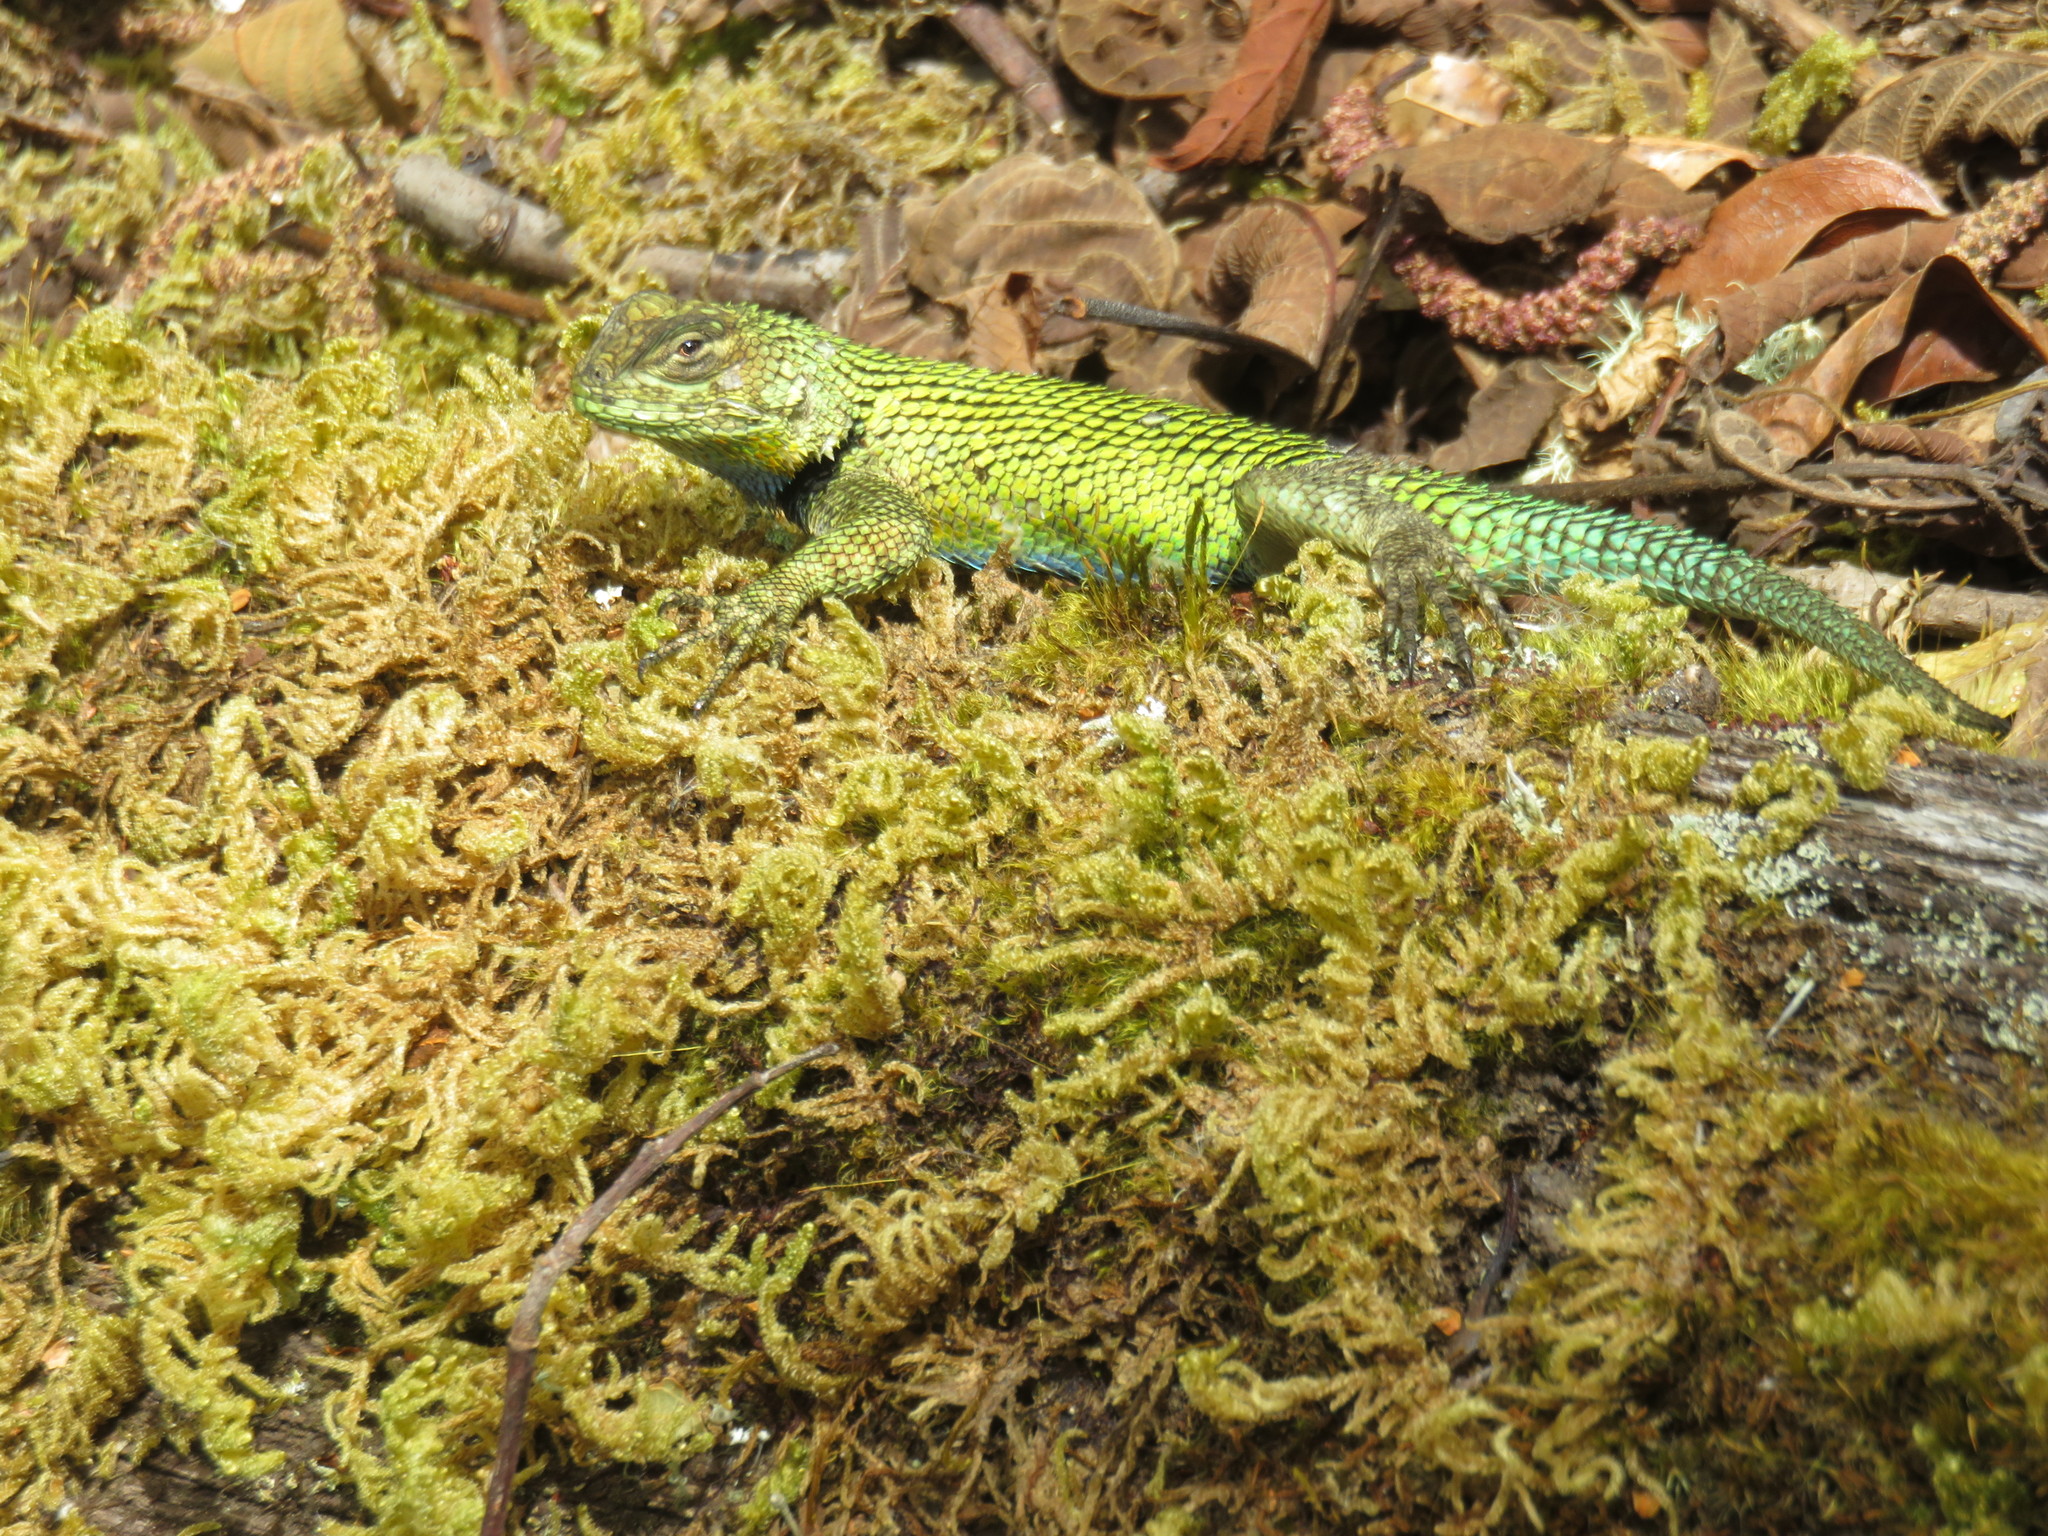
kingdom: Animalia
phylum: Chordata
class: Squamata
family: Phrynosomatidae
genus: Sceloporus
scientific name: Sceloporus malachiticus
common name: Green spiny lizard
